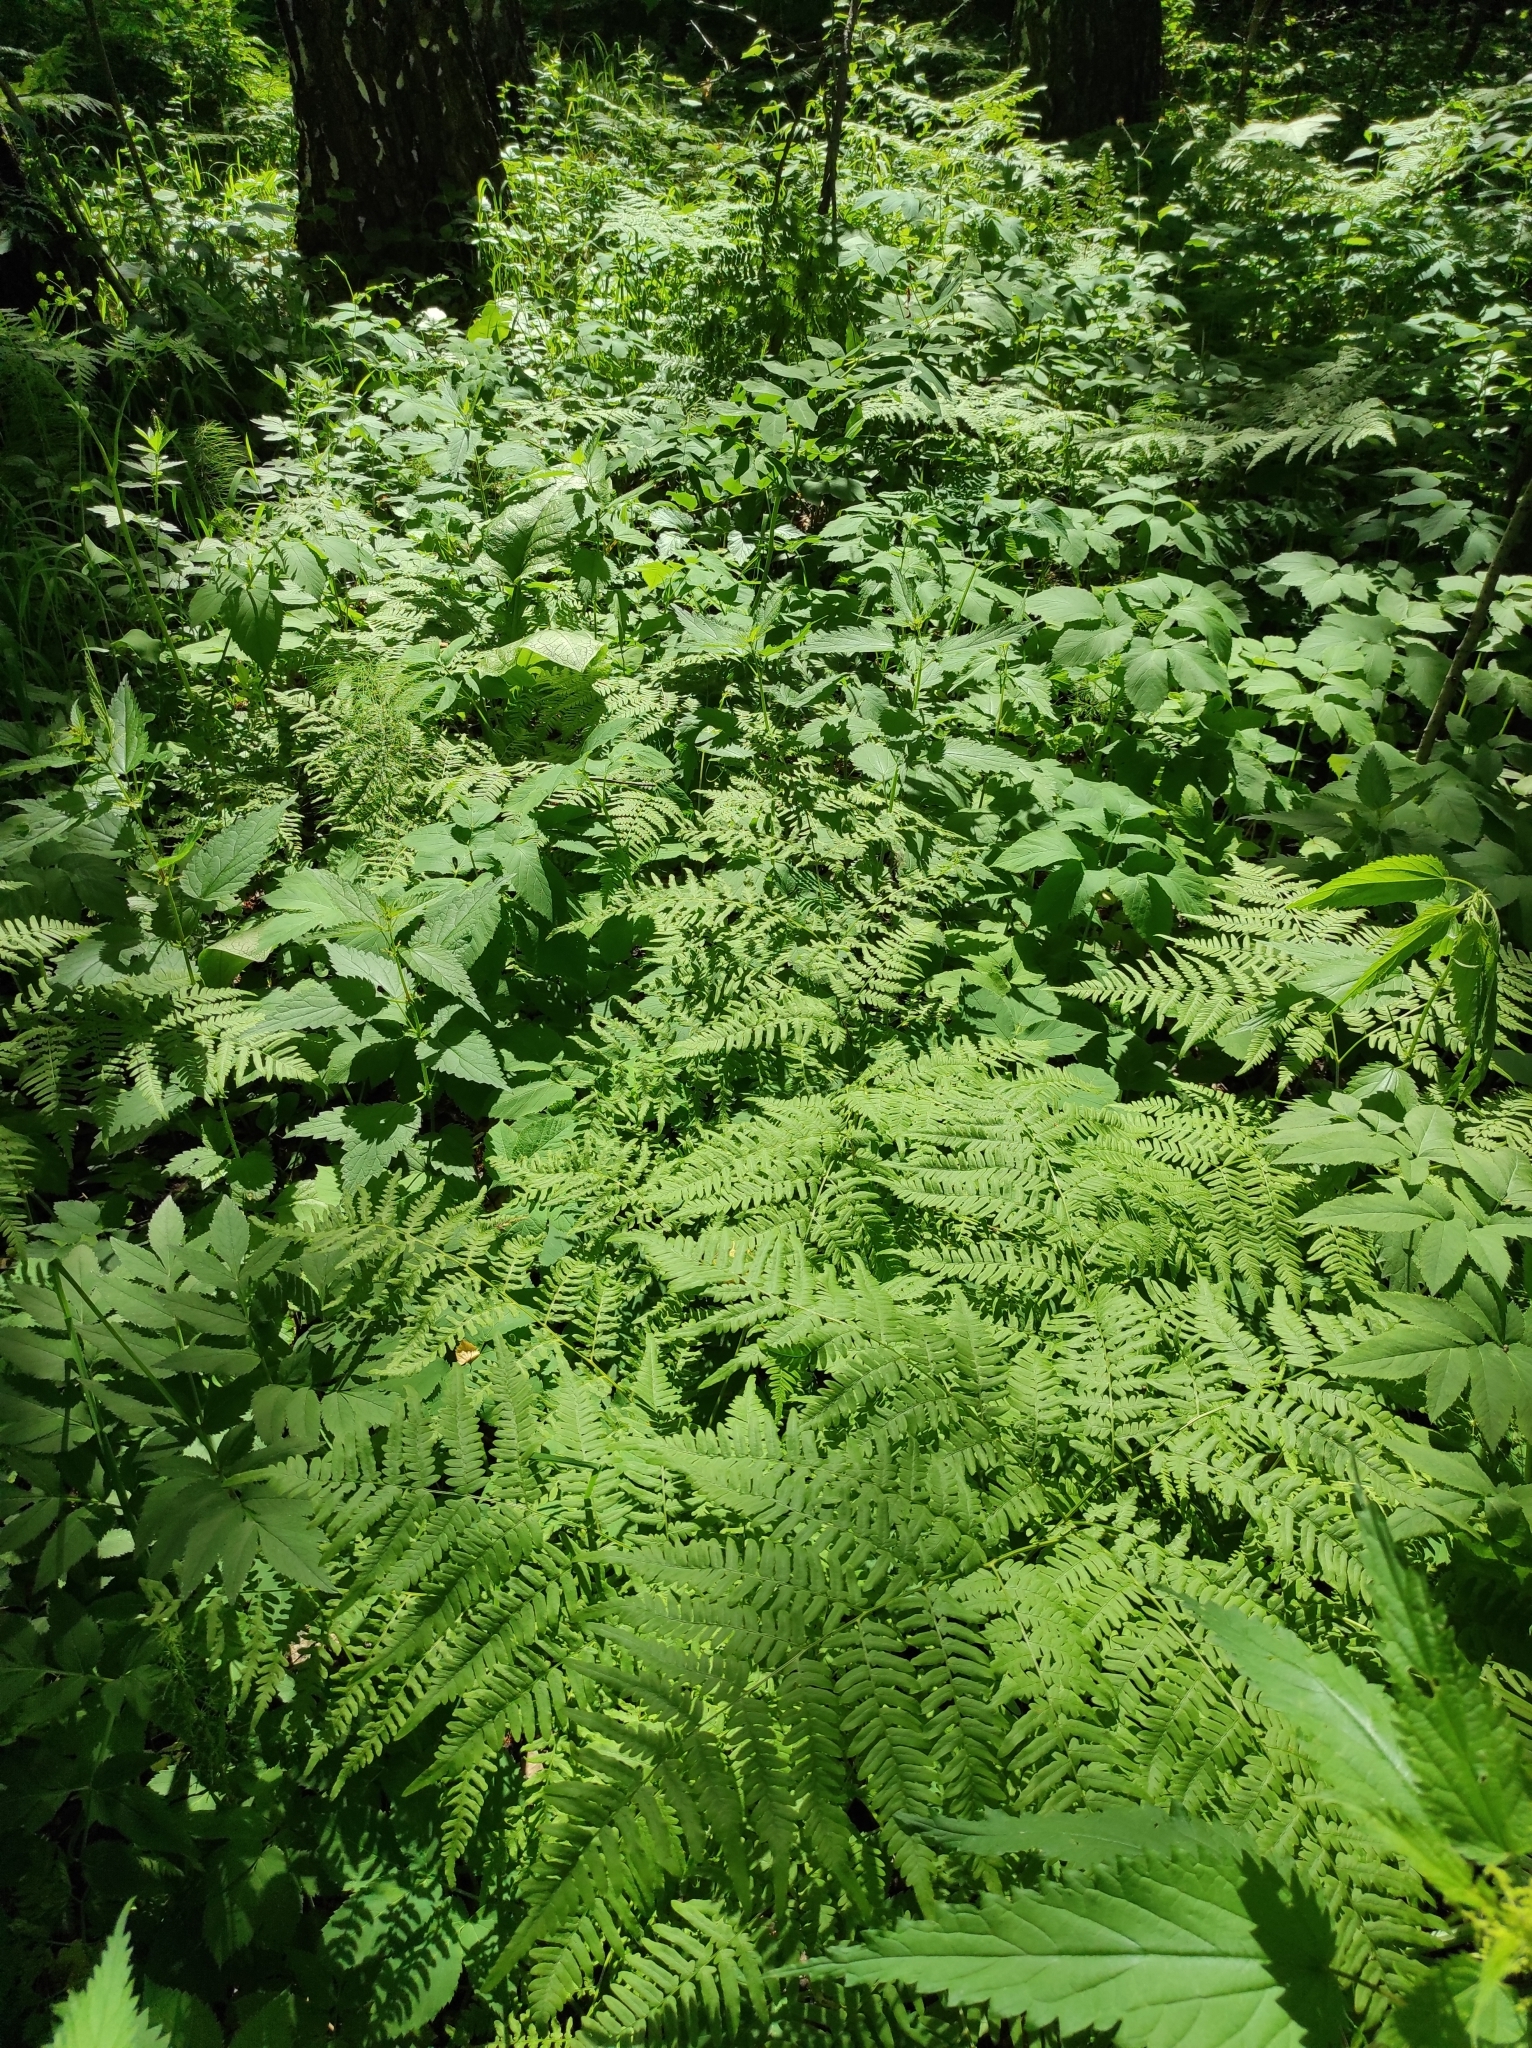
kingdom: Plantae
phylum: Tracheophyta
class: Polypodiopsida
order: Polypodiales
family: Dennstaedtiaceae
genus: Pteridium
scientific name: Pteridium aquilinum
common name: Bracken
